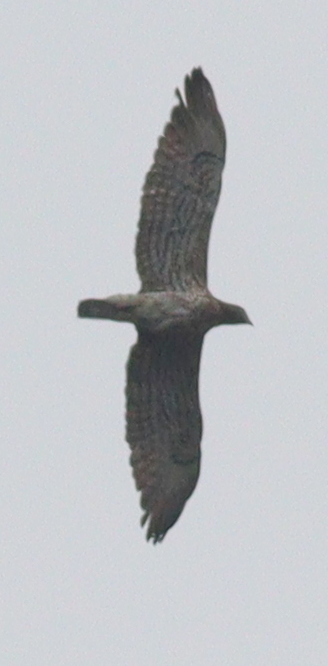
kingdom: Animalia
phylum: Chordata
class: Aves
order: Accipitriformes
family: Accipitridae
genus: Circaetus
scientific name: Circaetus gallicus
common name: Short-toed snake eagle
